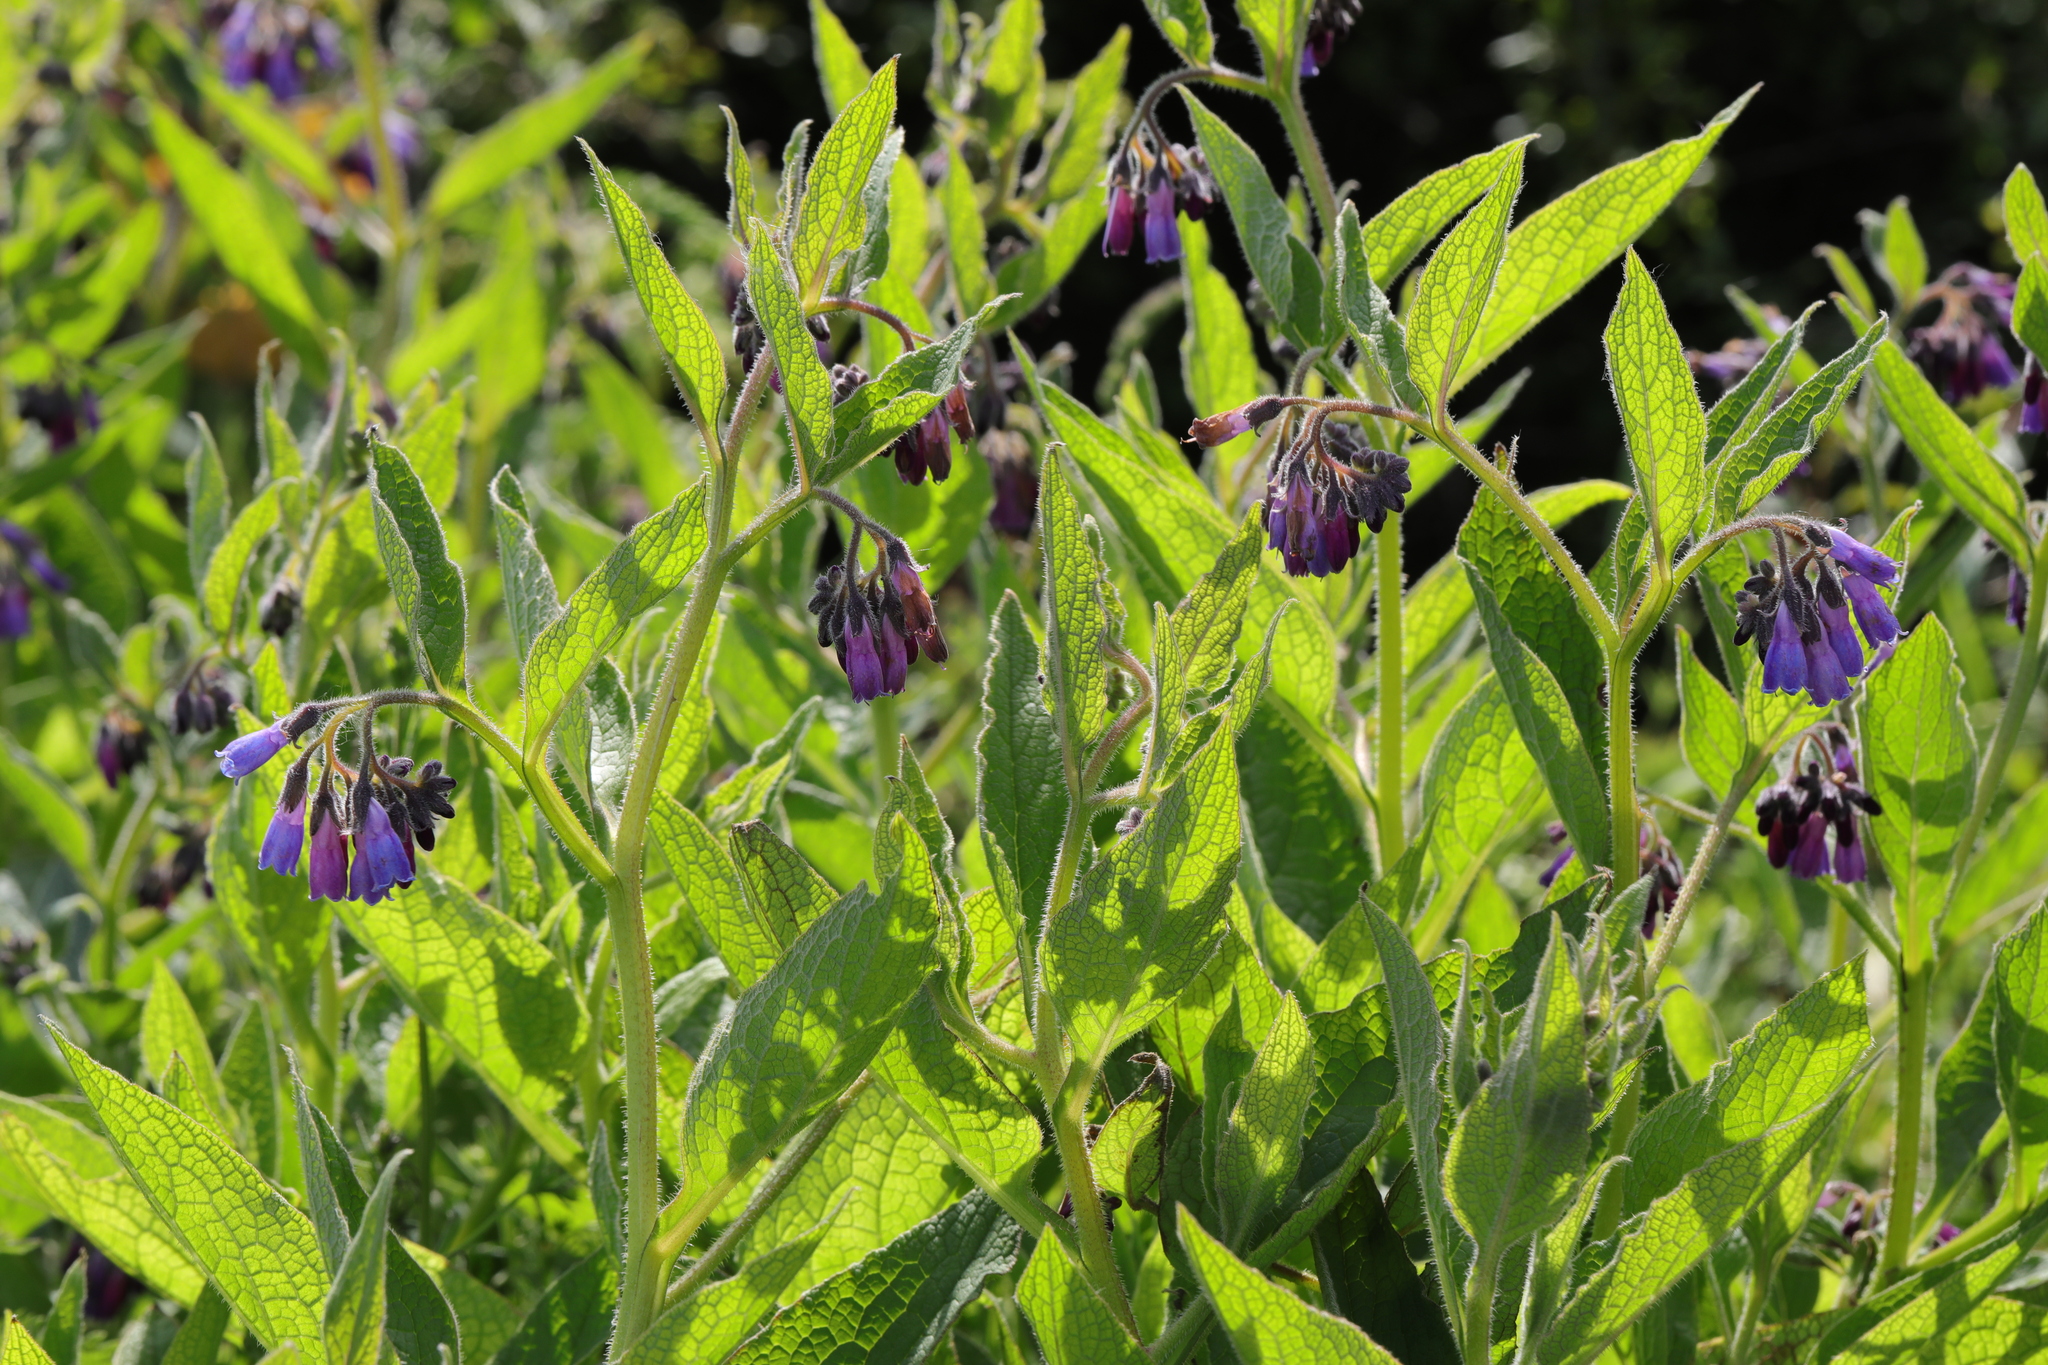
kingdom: Plantae
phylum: Tracheophyta
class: Magnoliopsida
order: Boraginales
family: Boraginaceae
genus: Symphytum
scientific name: Symphytum officinale
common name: Common comfrey
